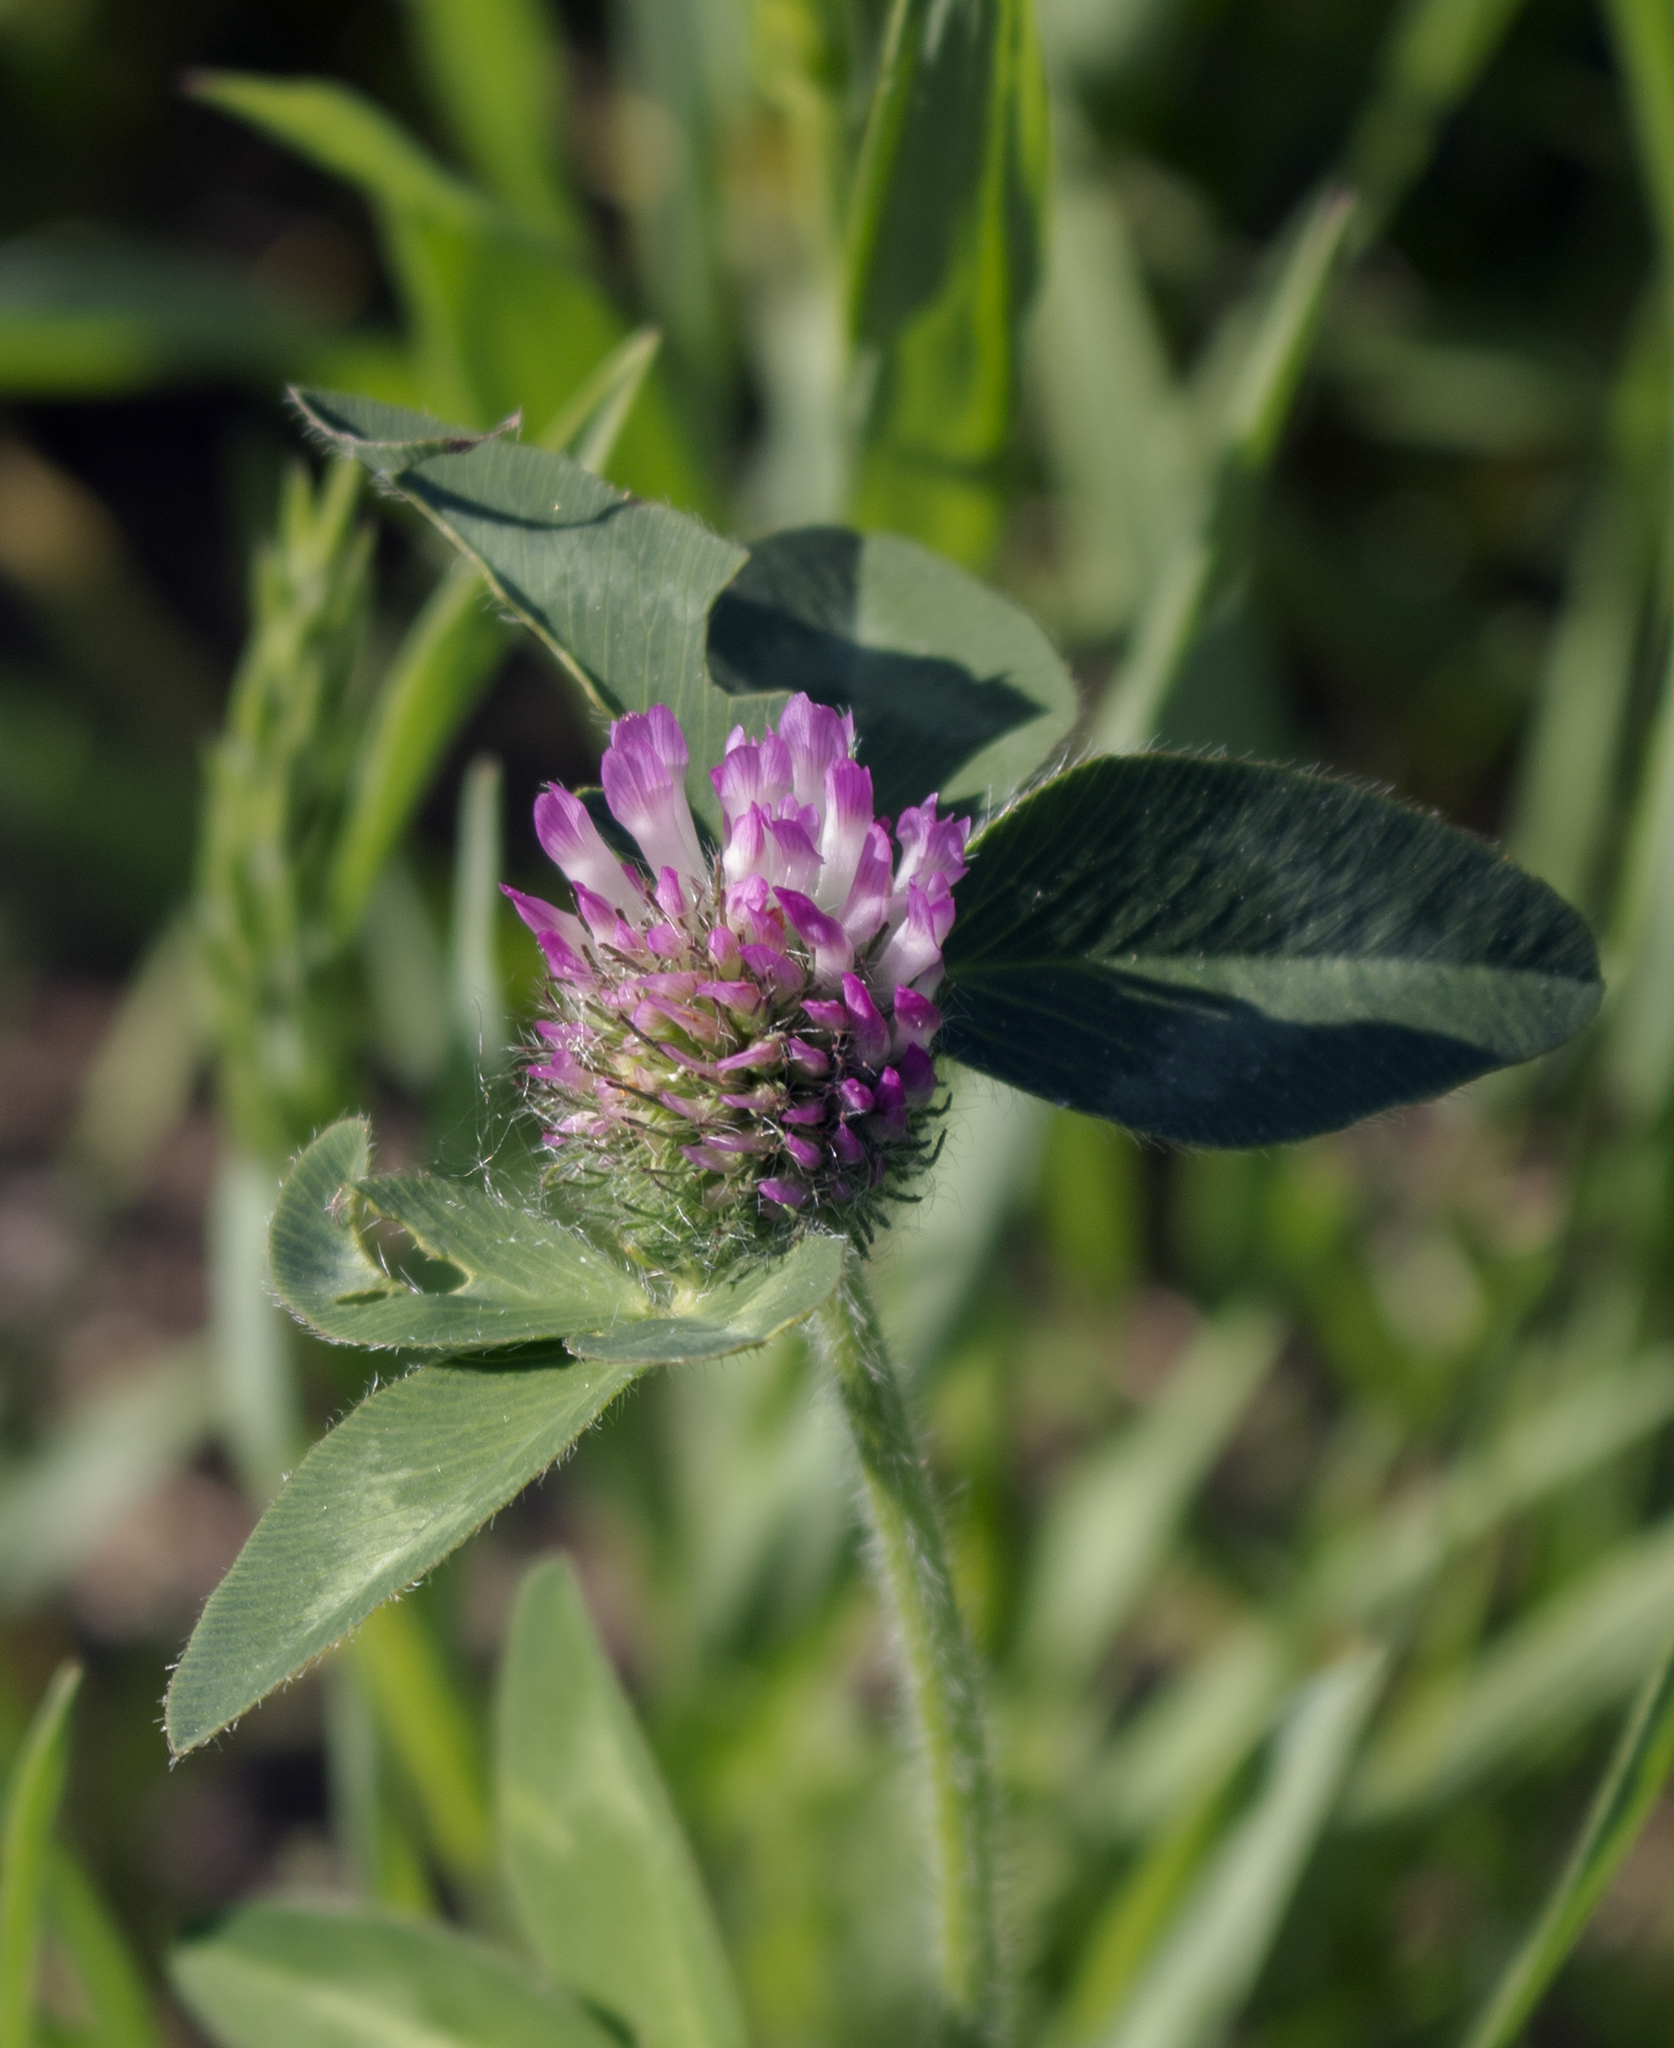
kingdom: Plantae
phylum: Tracheophyta
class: Magnoliopsida
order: Fabales
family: Fabaceae
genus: Trifolium
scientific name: Trifolium pratense
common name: Red clover
